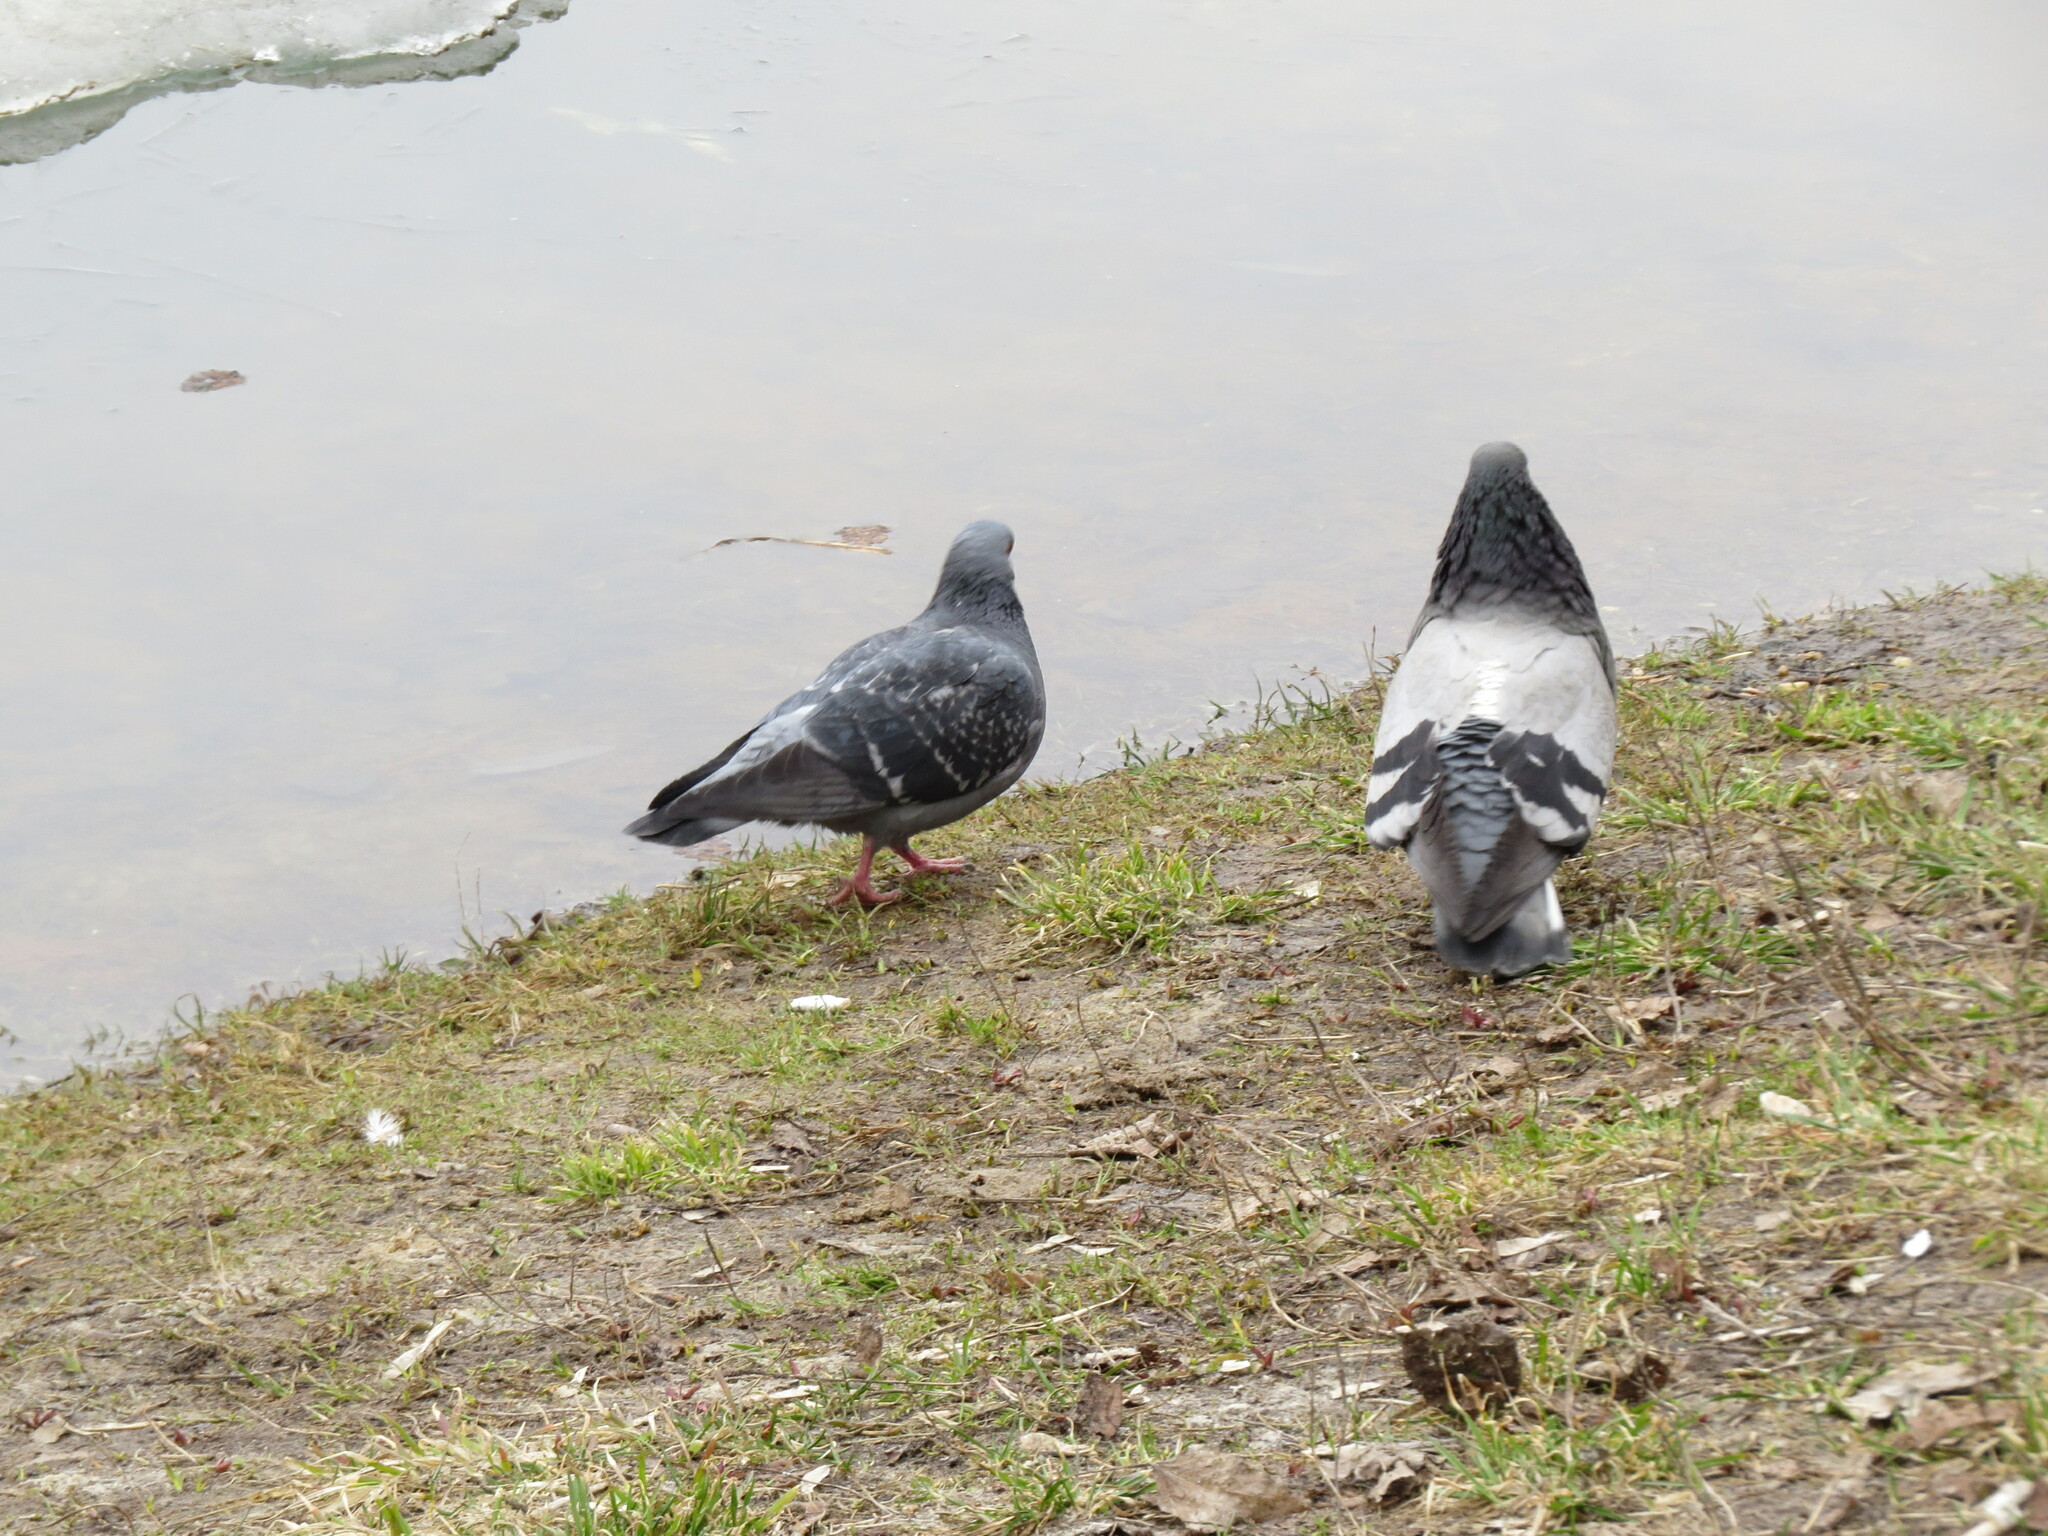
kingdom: Animalia
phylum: Chordata
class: Aves
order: Columbiformes
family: Columbidae
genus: Columba
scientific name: Columba livia
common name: Rock pigeon
